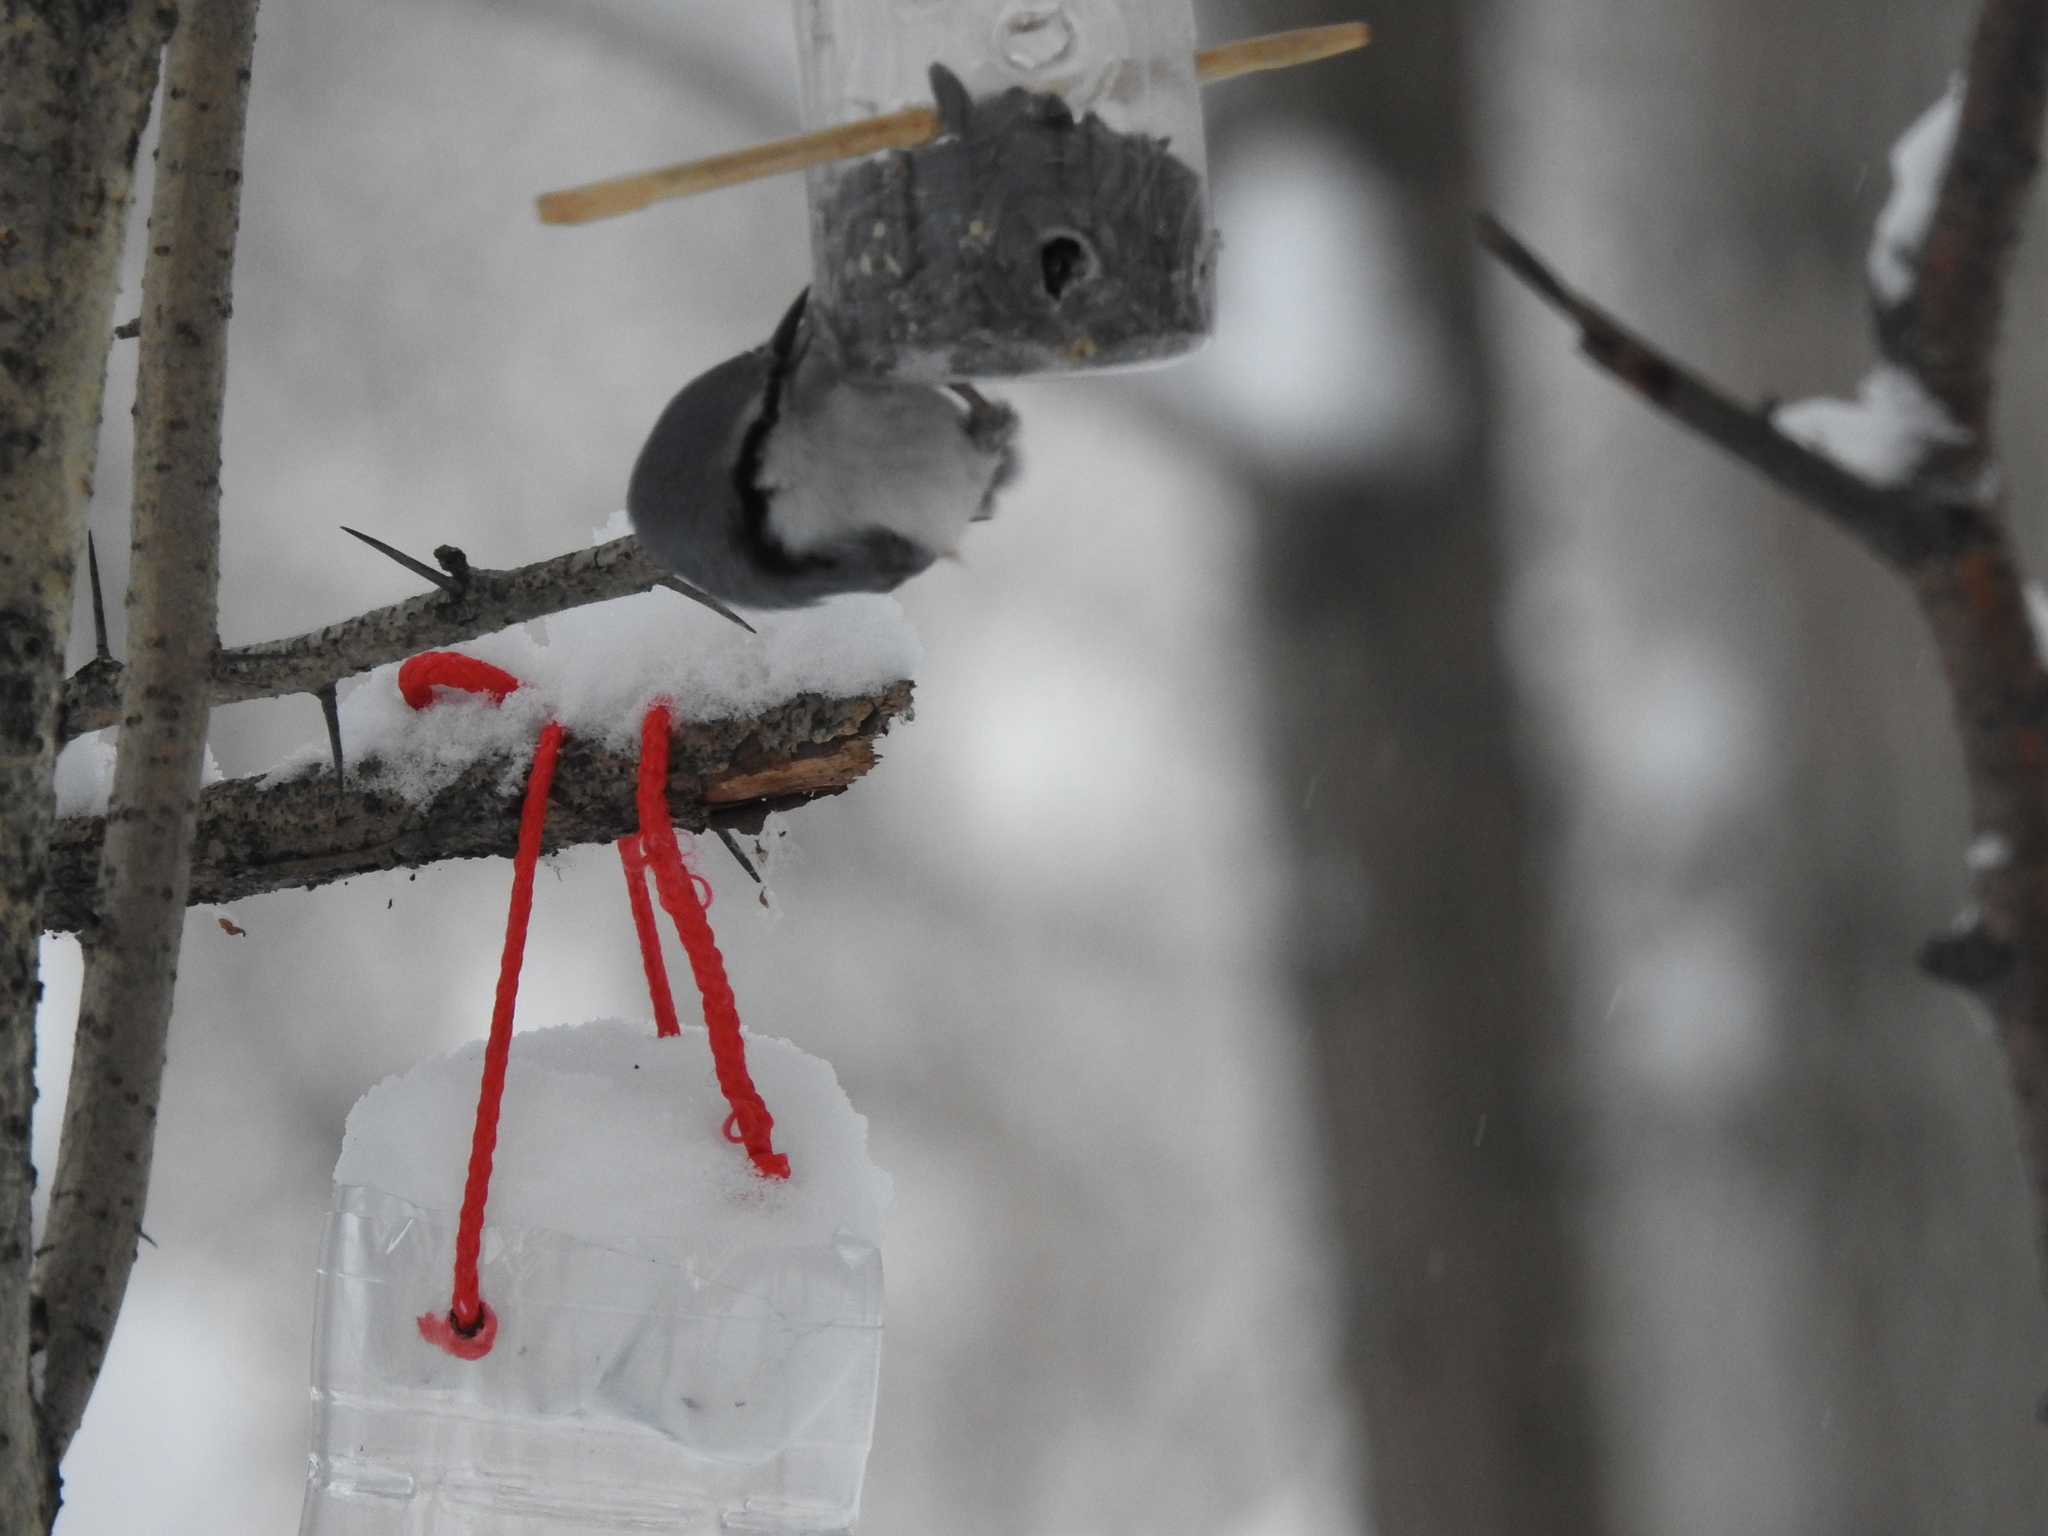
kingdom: Animalia
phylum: Chordata
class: Aves
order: Passeriformes
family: Sittidae
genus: Sitta
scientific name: Sitta europaea
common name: Eurasian nuthatch
